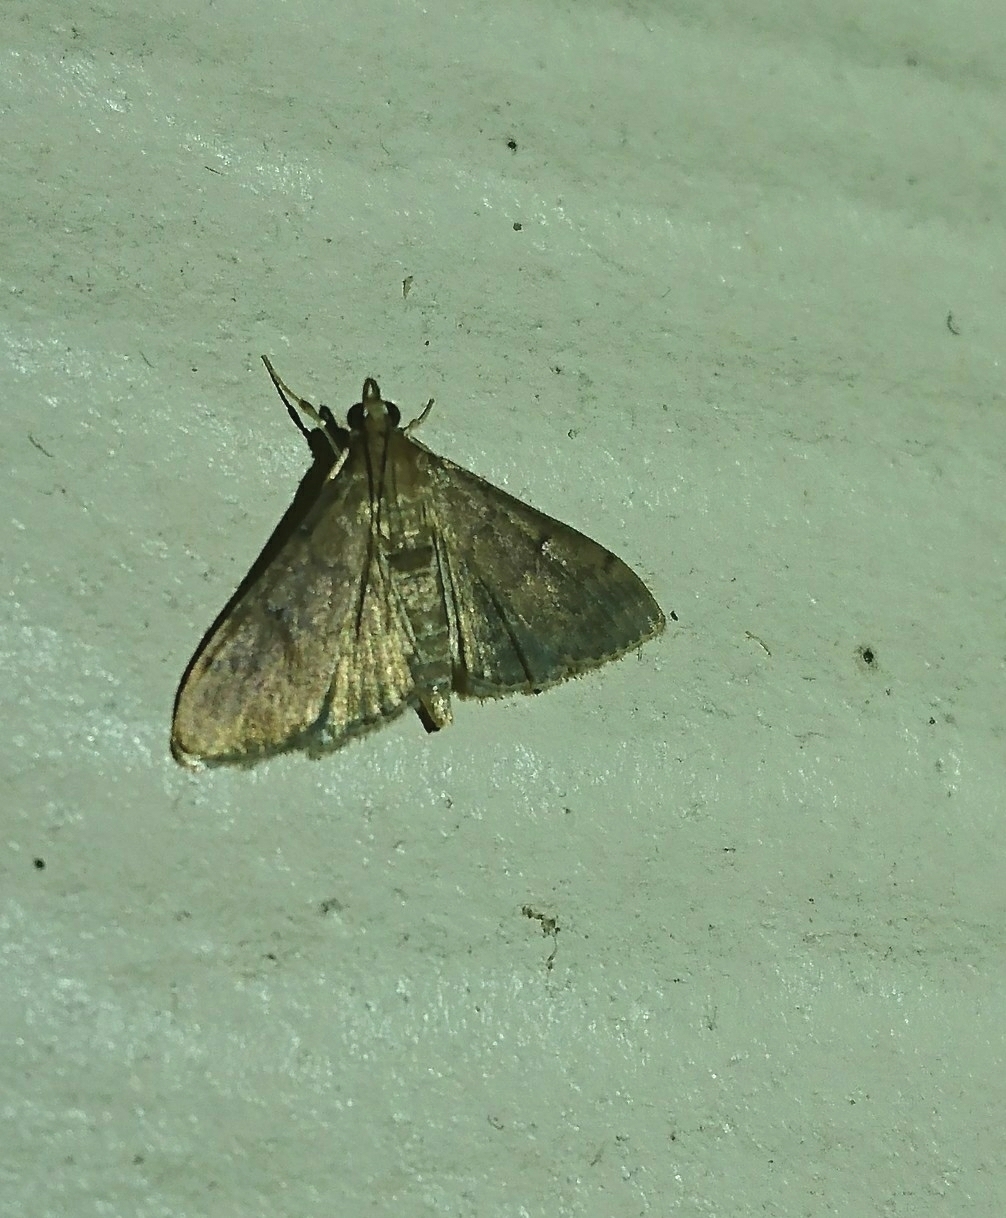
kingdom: Animalia
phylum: Arthropoda
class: Insecta
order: Lepidoptera
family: Crambidae
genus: Herpetogramma
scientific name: Herpetogramma phaeopteralis
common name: Dusky herpetogramma moth
